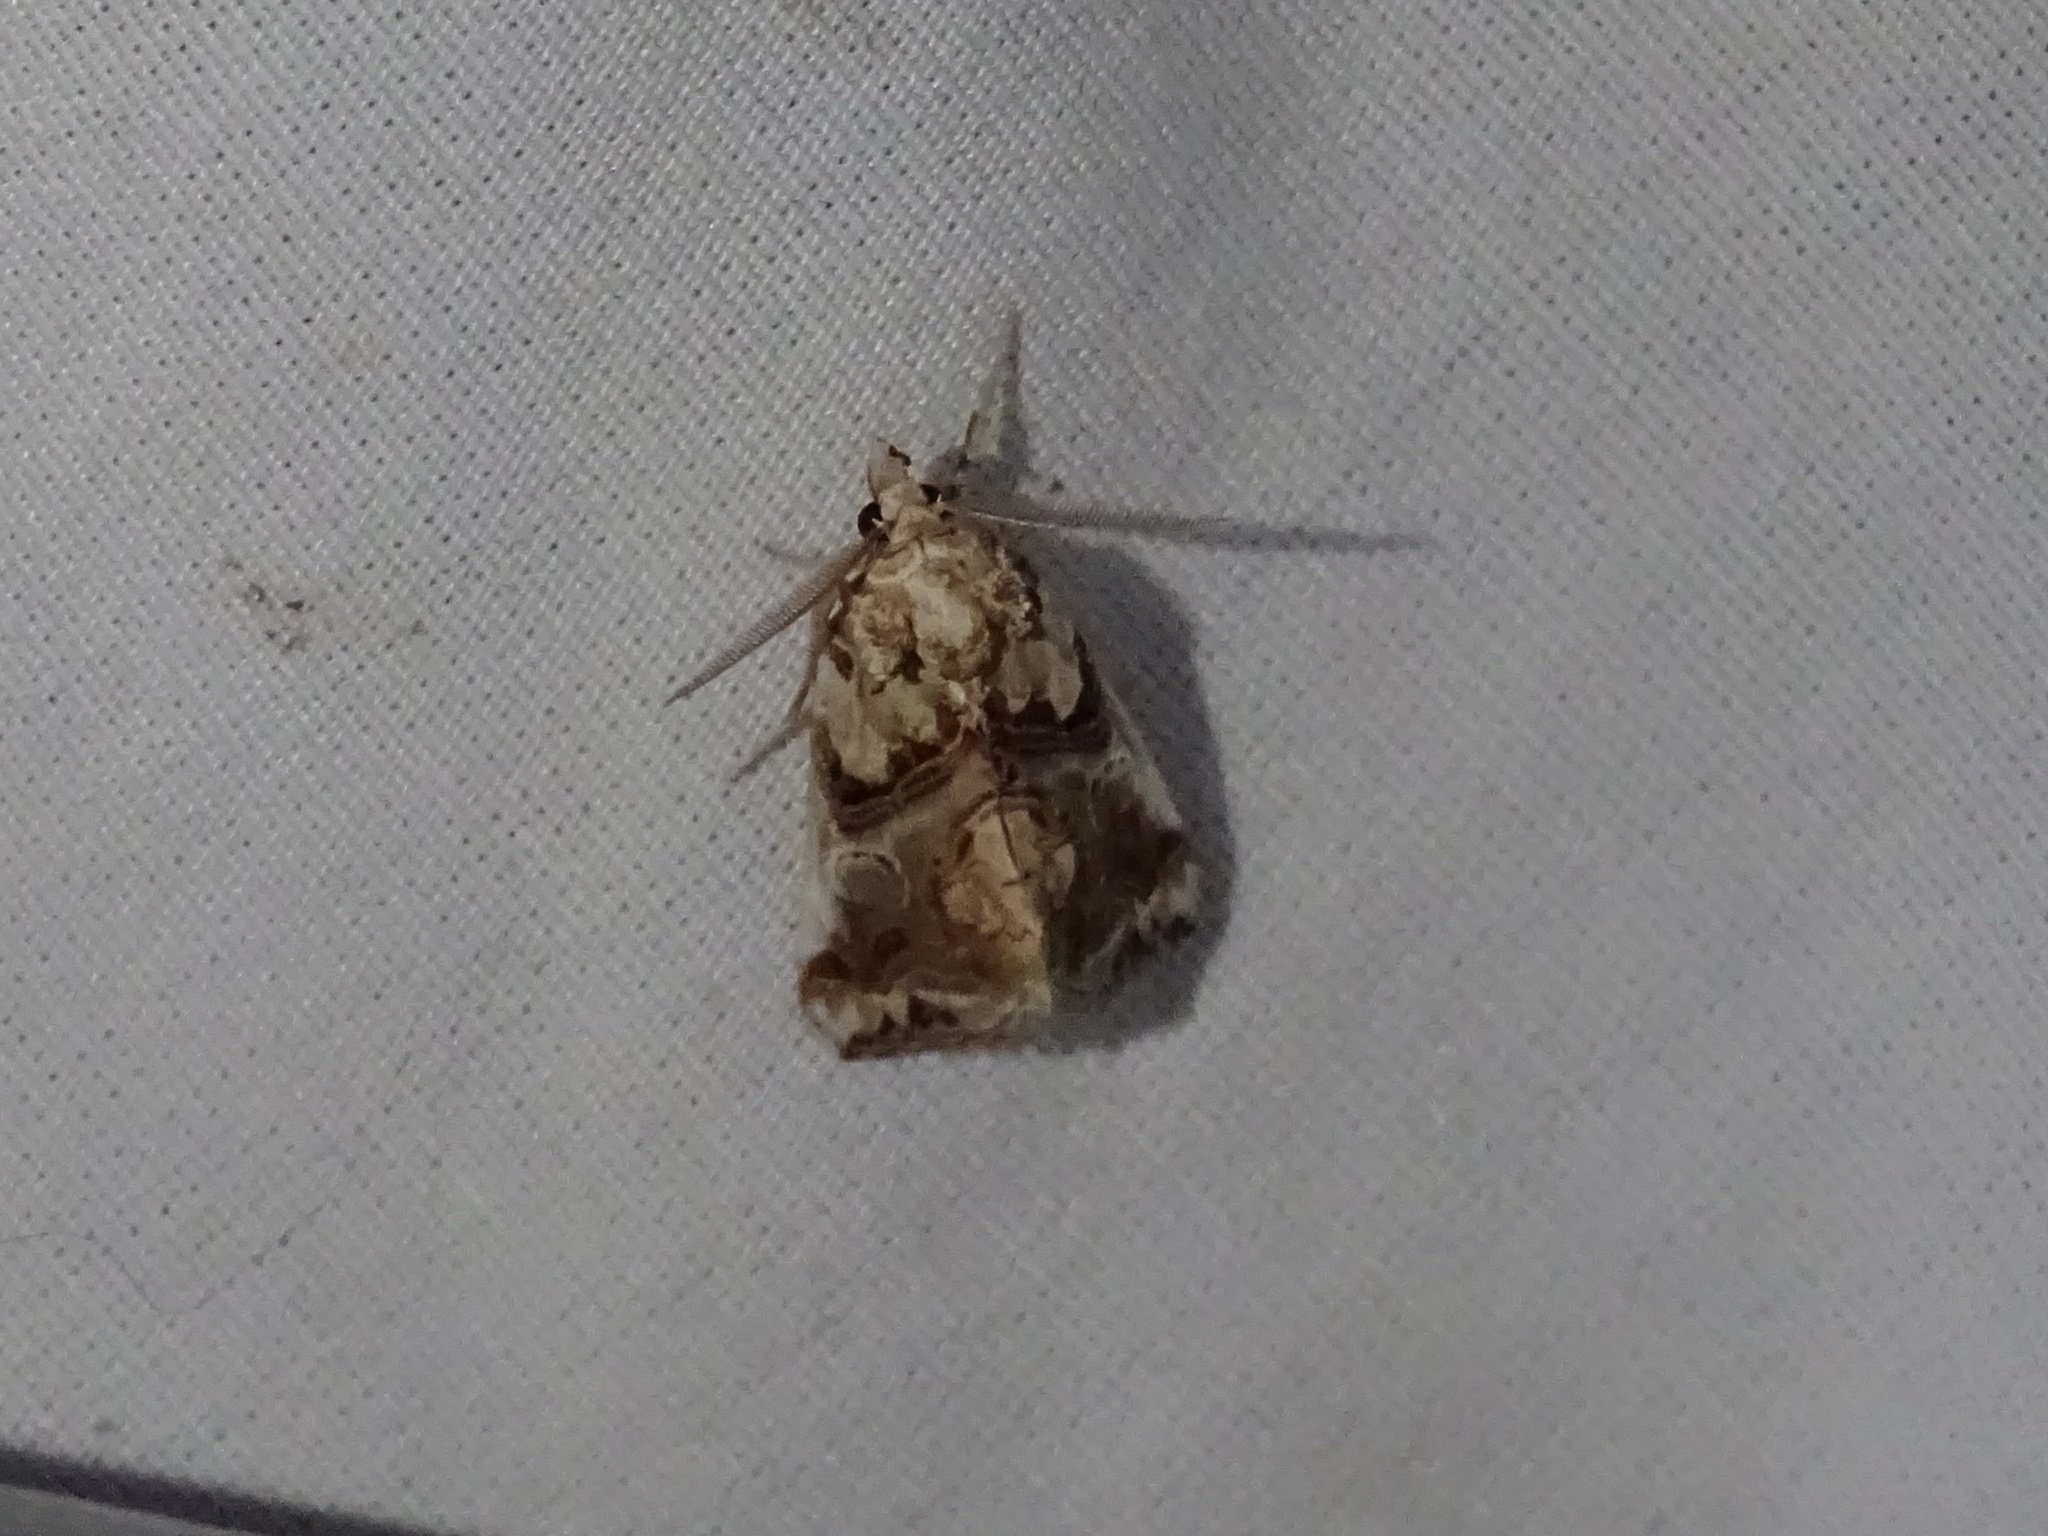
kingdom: Animalia
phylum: Arthropoda
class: Insecta
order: Lepidoptera
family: Erebidae
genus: Plusiodonta
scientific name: Plusiodonta compressipalpis
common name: Moonseed moth
